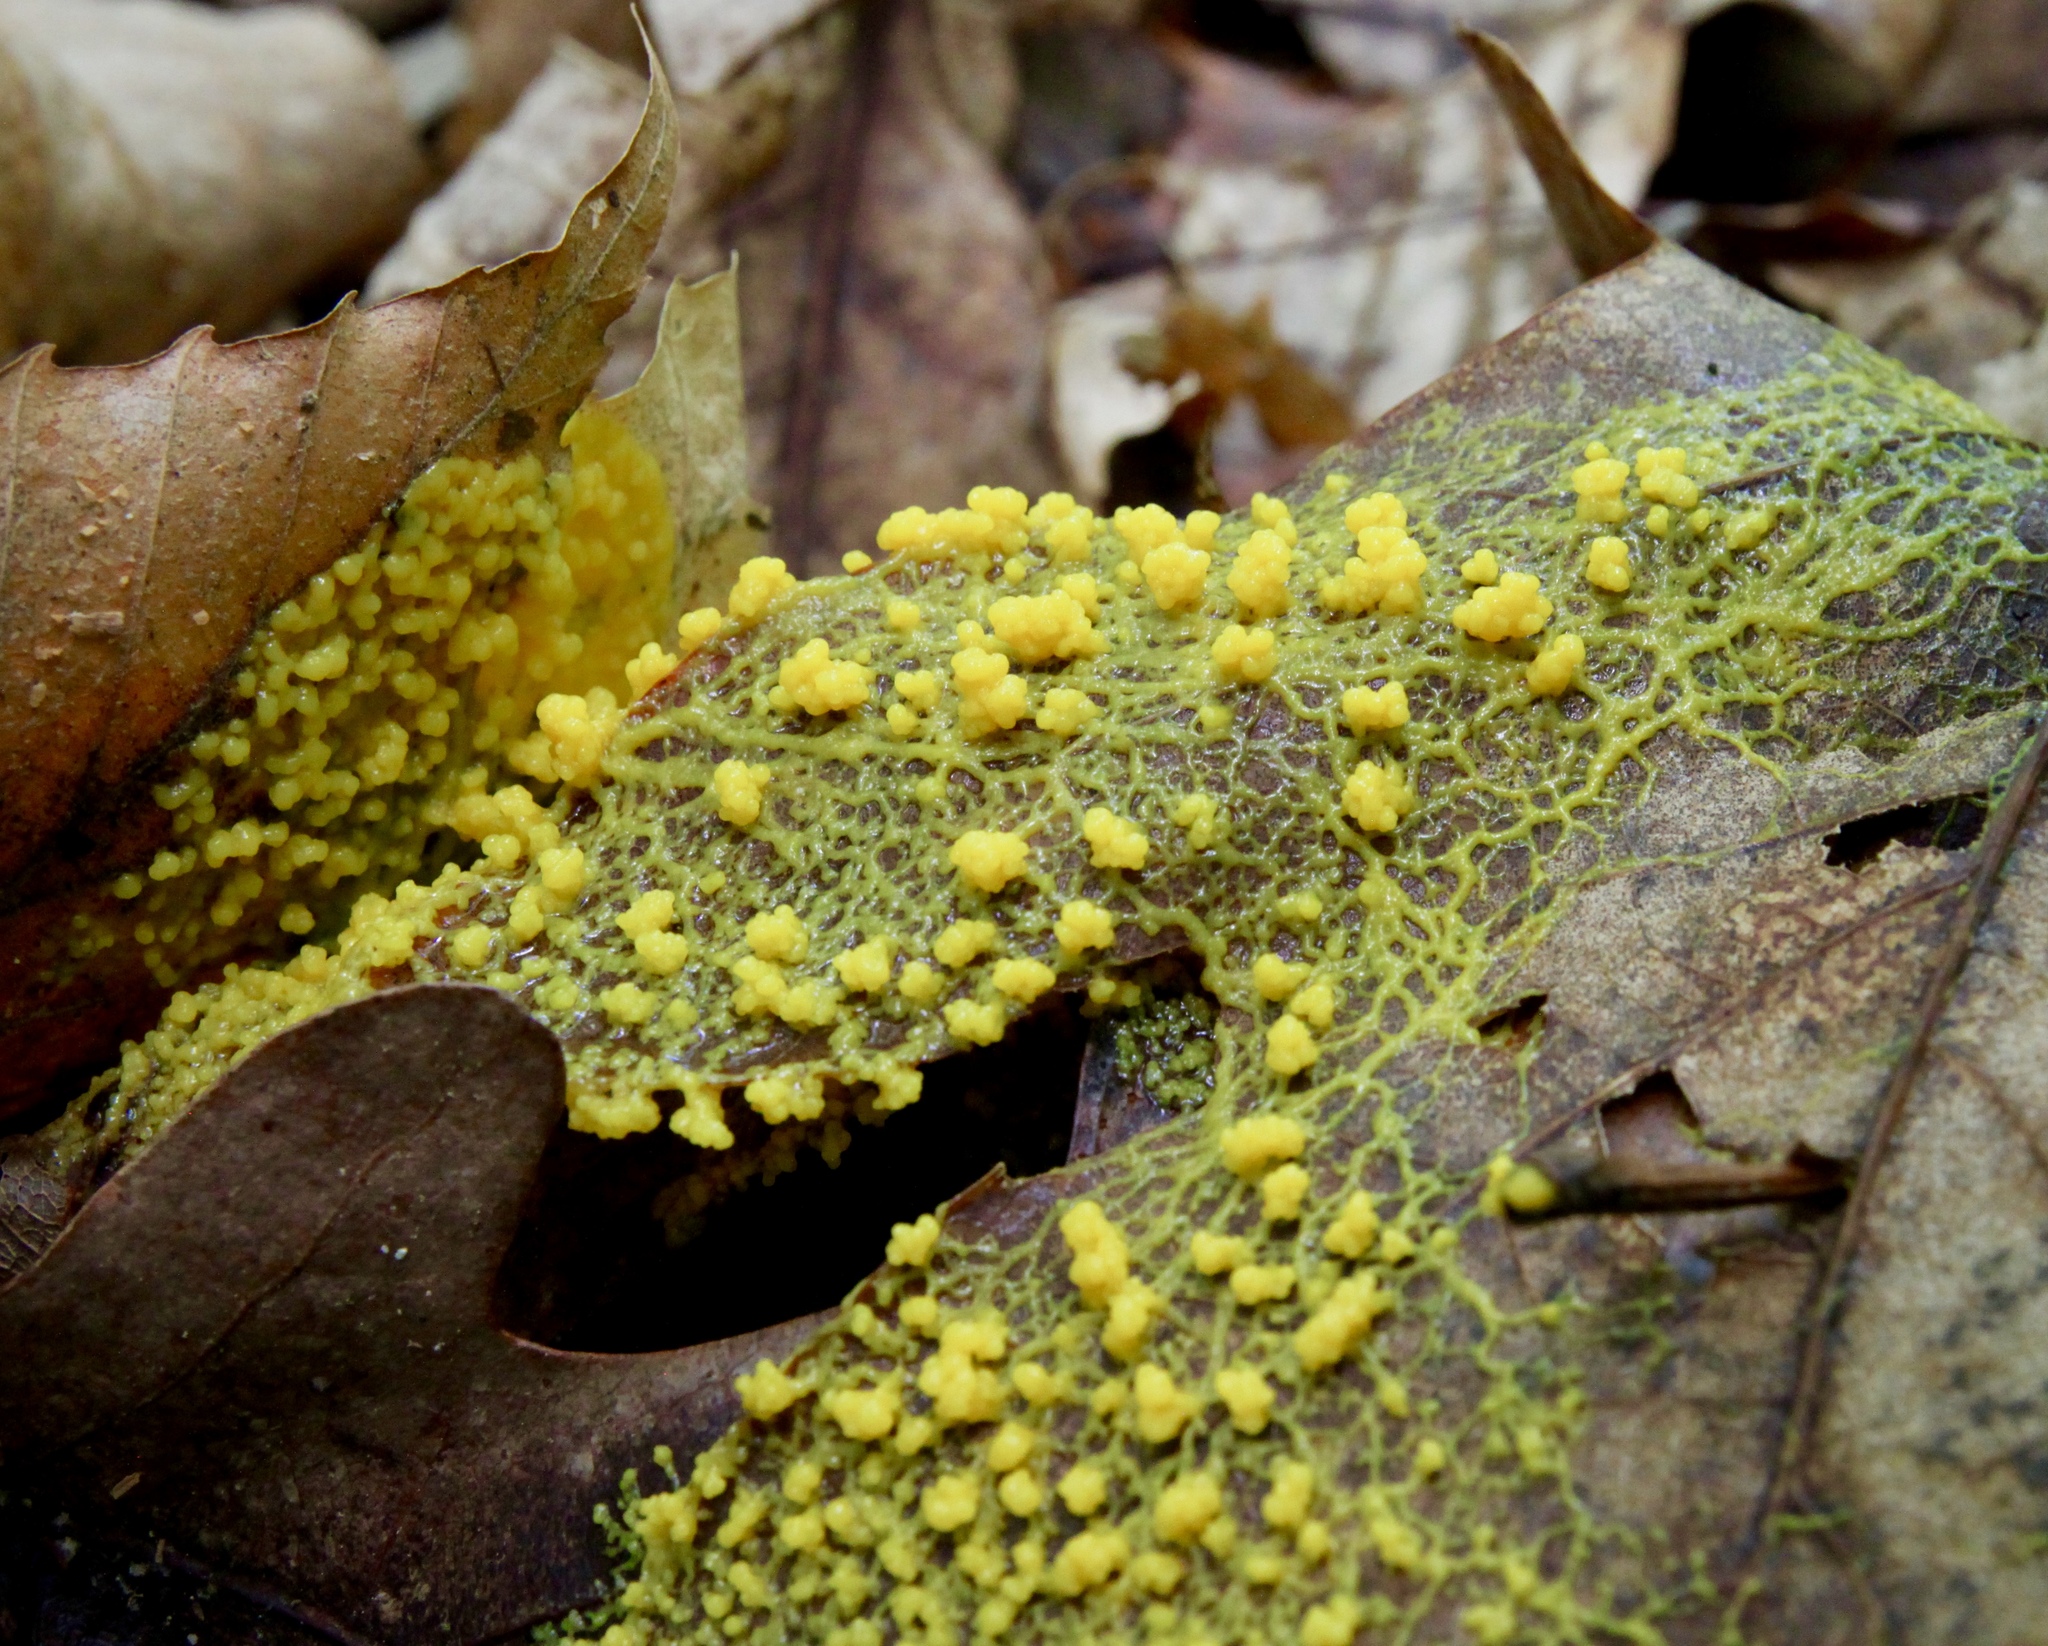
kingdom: Protozoa
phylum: Mycetozoa
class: Myxomycetes
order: Physarales
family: Physaraceae
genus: Physarum
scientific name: Physarum polycephalum
